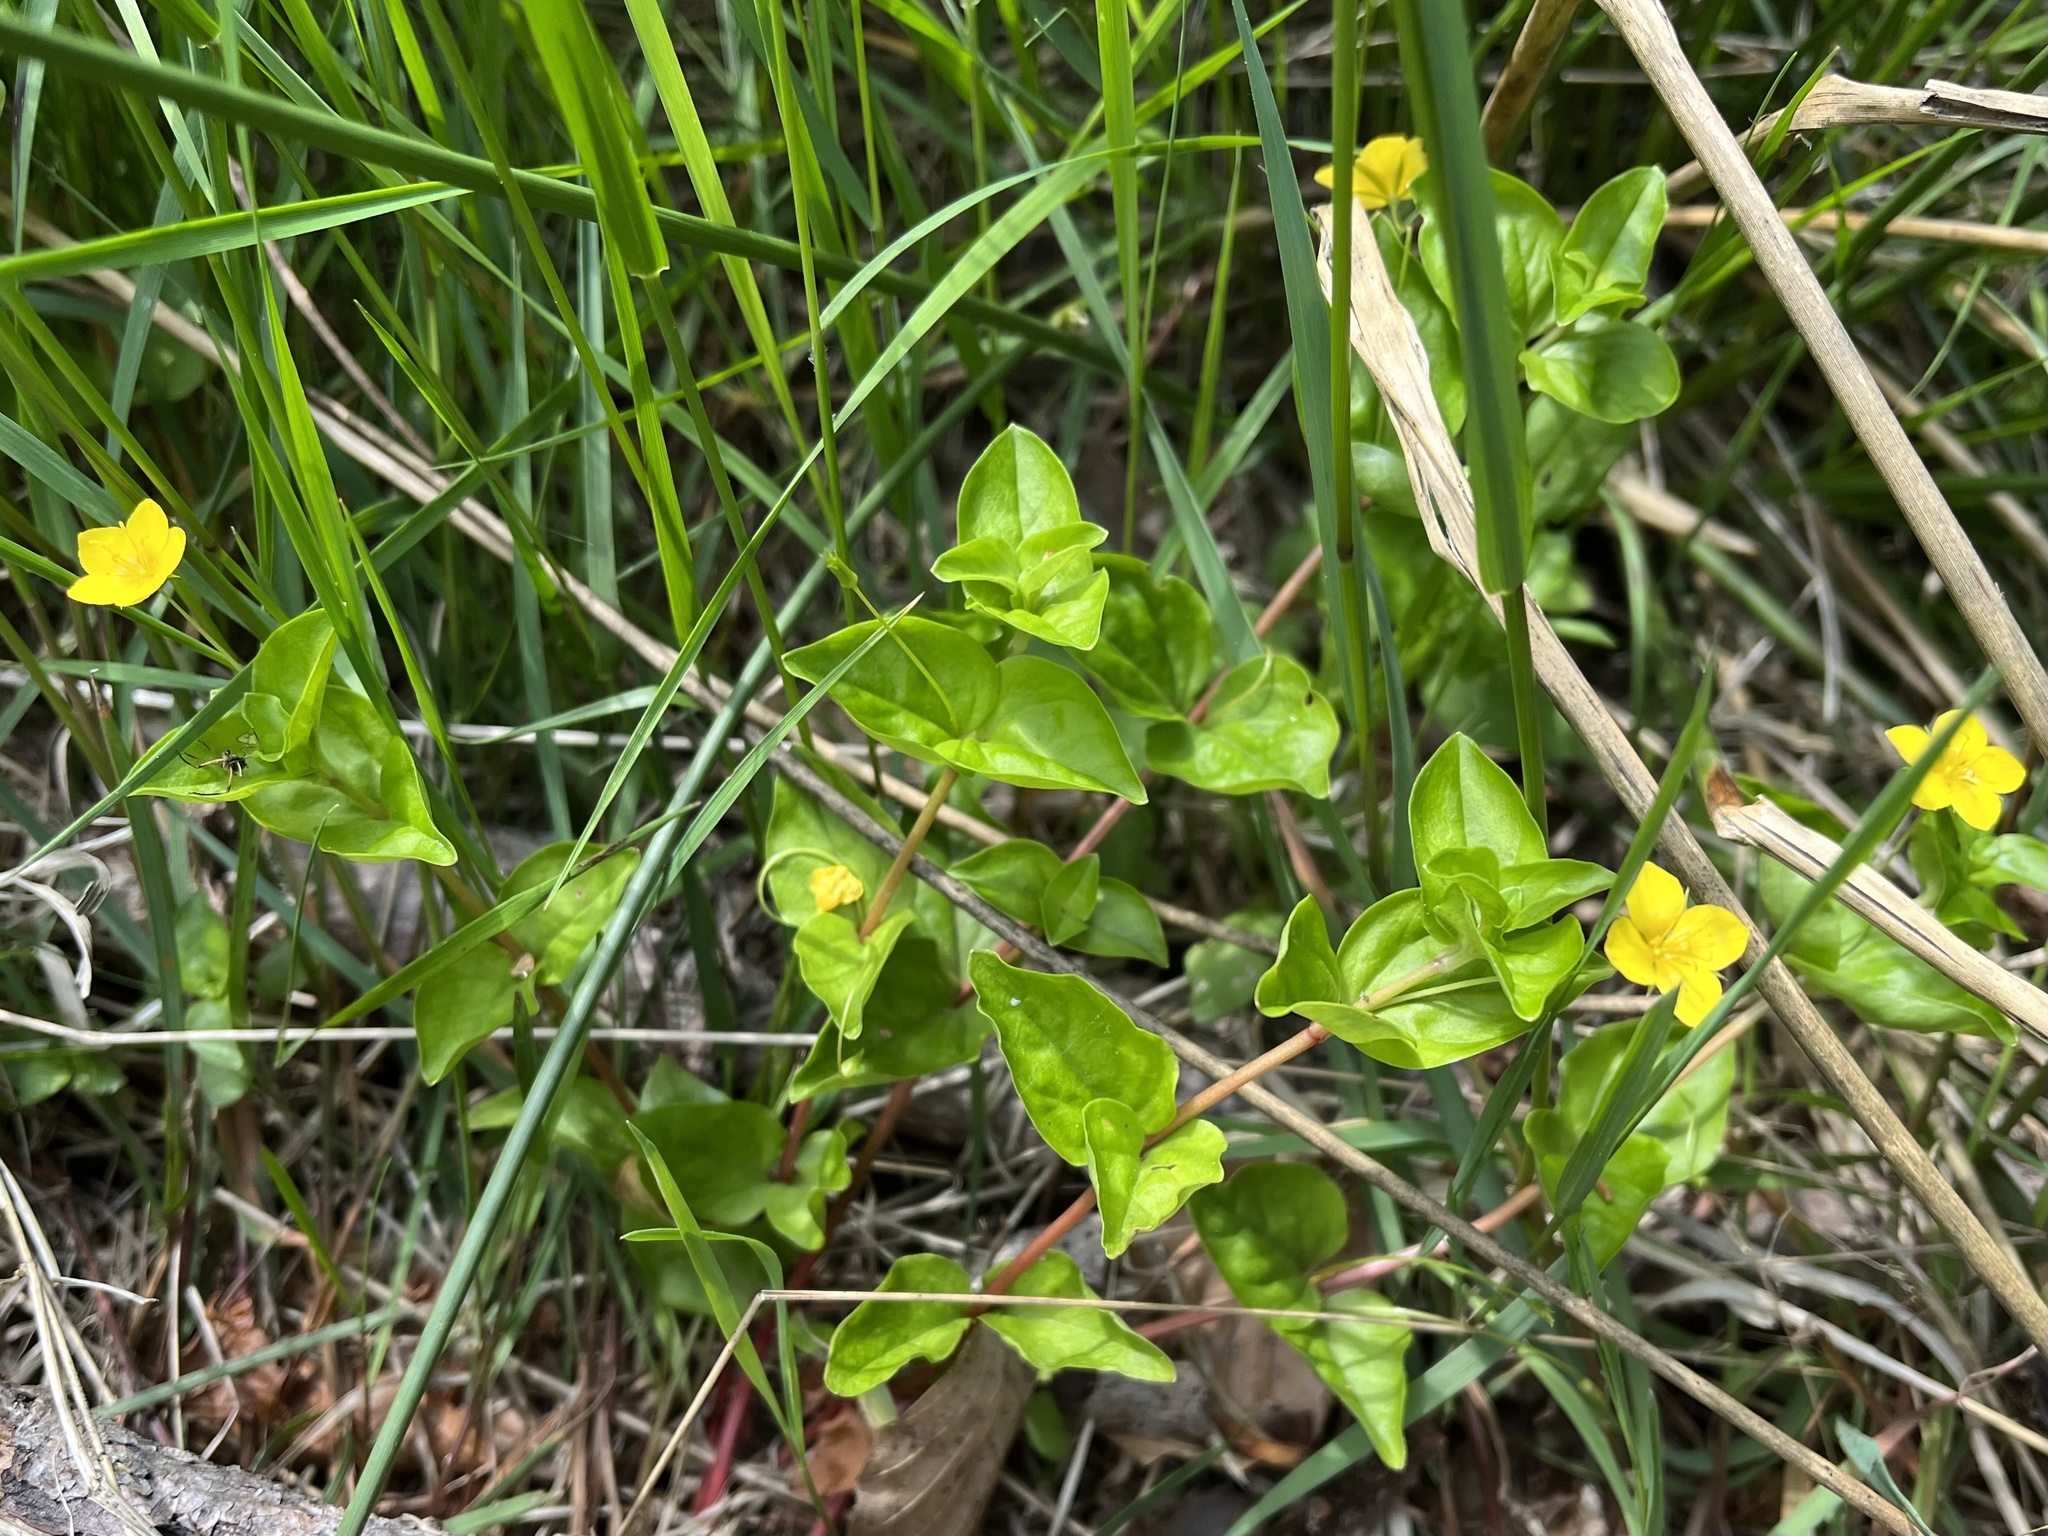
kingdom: Plantae
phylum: Tracheophyta
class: Magnoliopsida
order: Ericales
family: Primulaceae
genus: Lysimachia
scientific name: Lysimachia nemorum
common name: Yellow pimpernel
